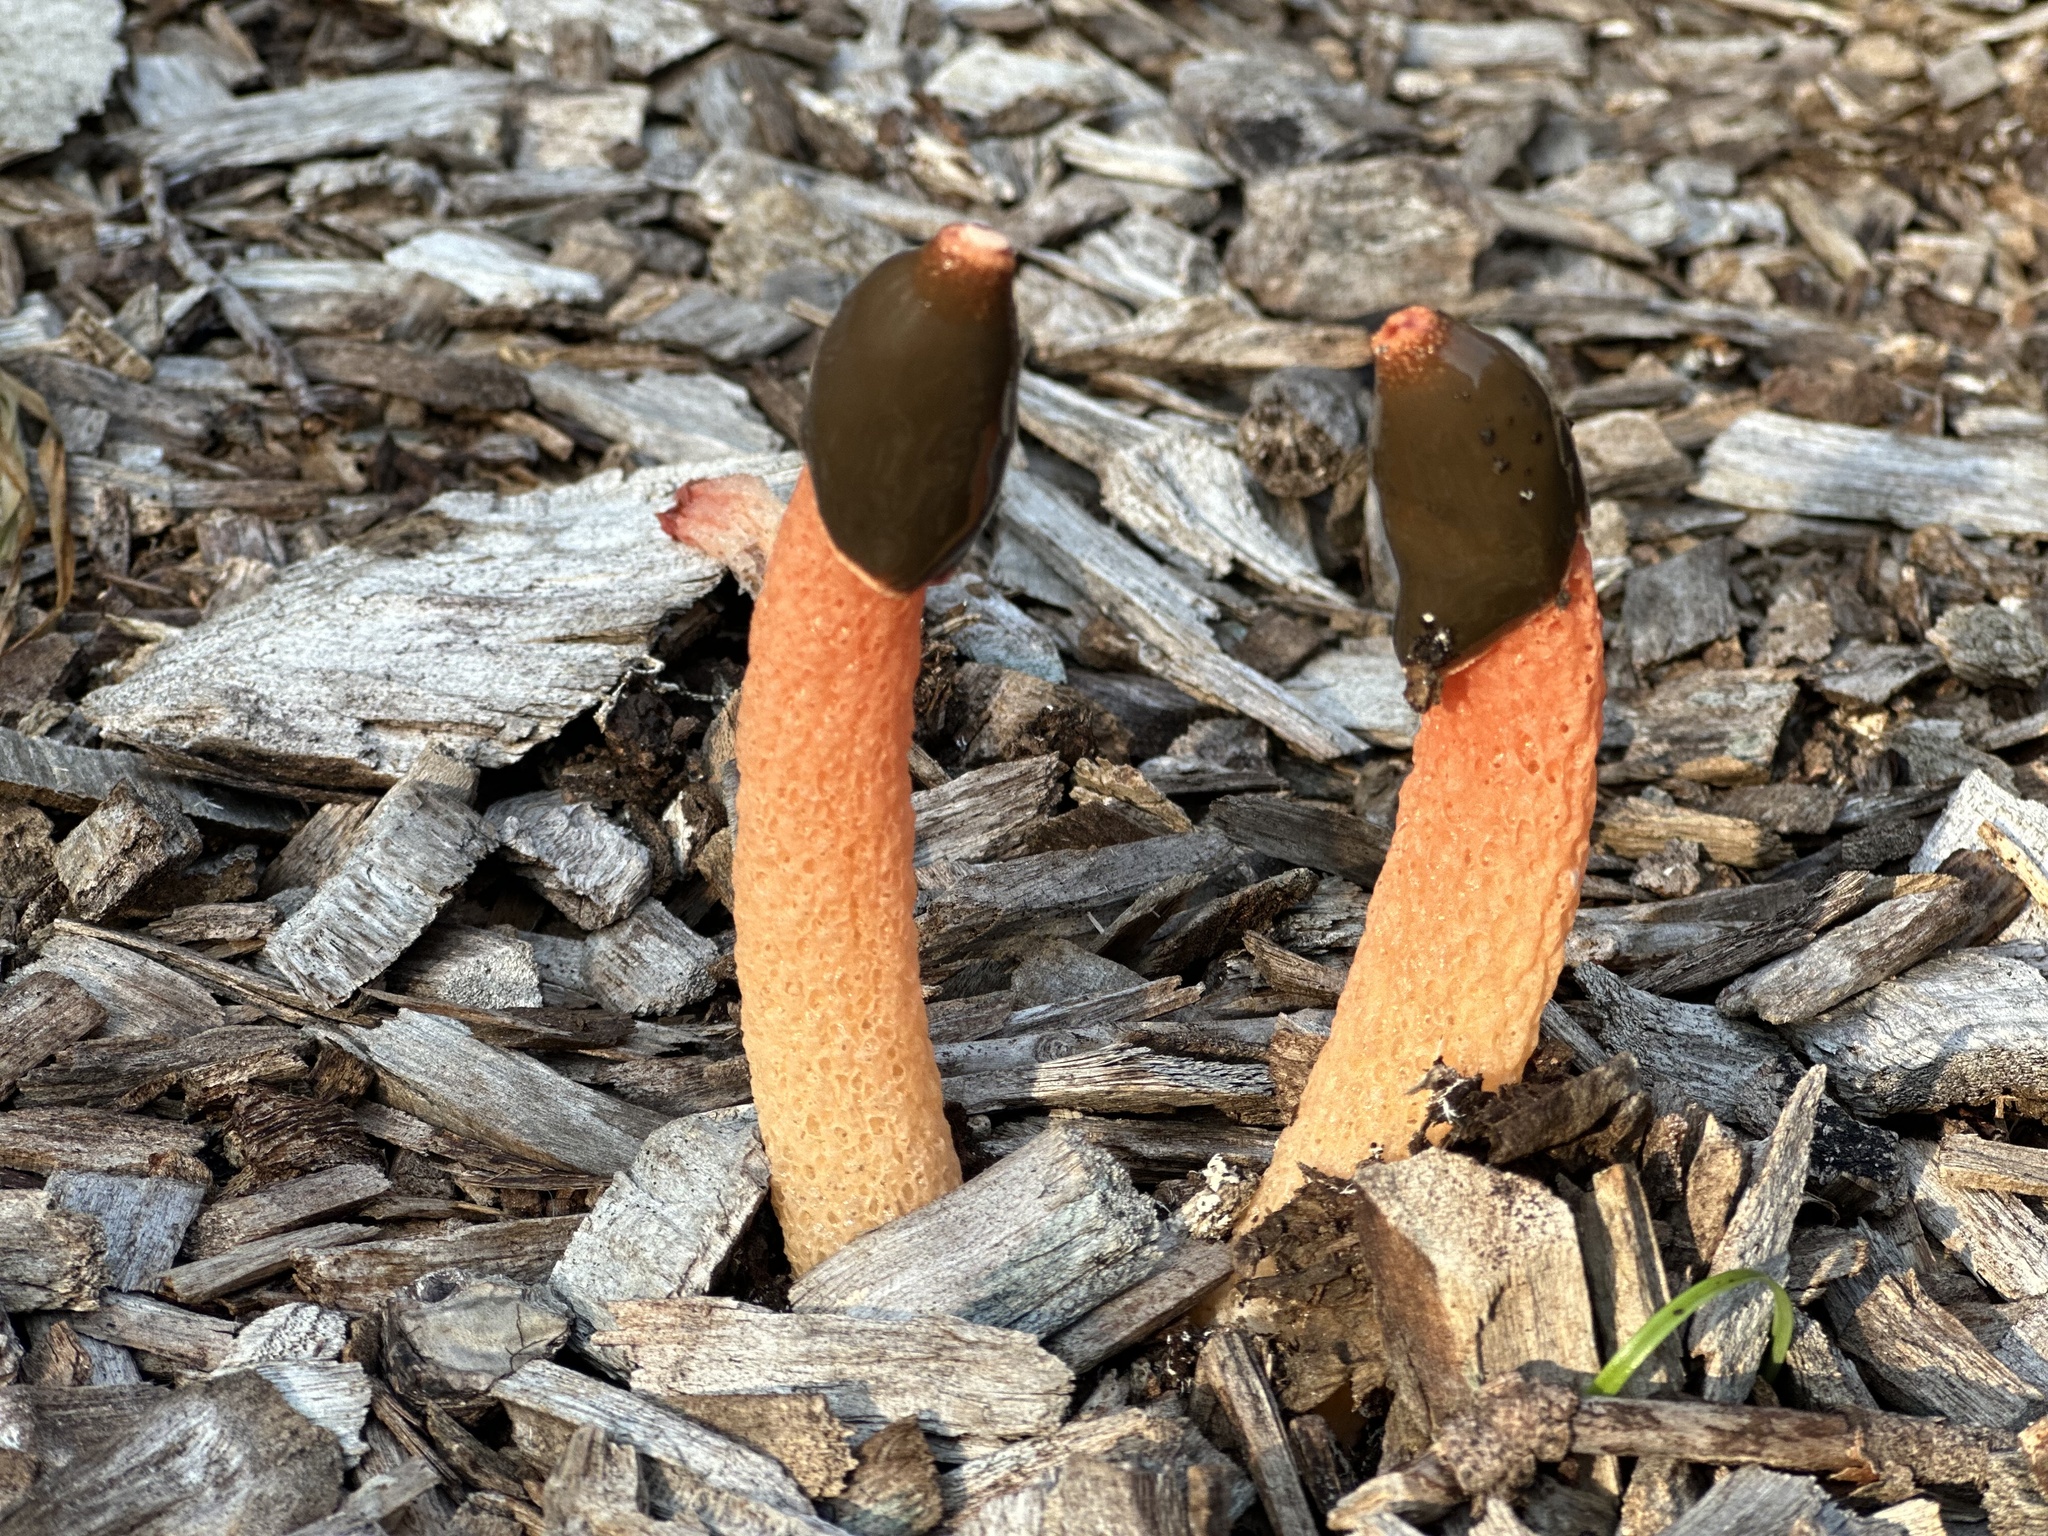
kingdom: Fungi
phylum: Basidiomycota
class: Agaricomycetes
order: Phallales
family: Phallaceae
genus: Phallus
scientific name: Phallus rugulosus
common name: Wrinkly stinkhorn
